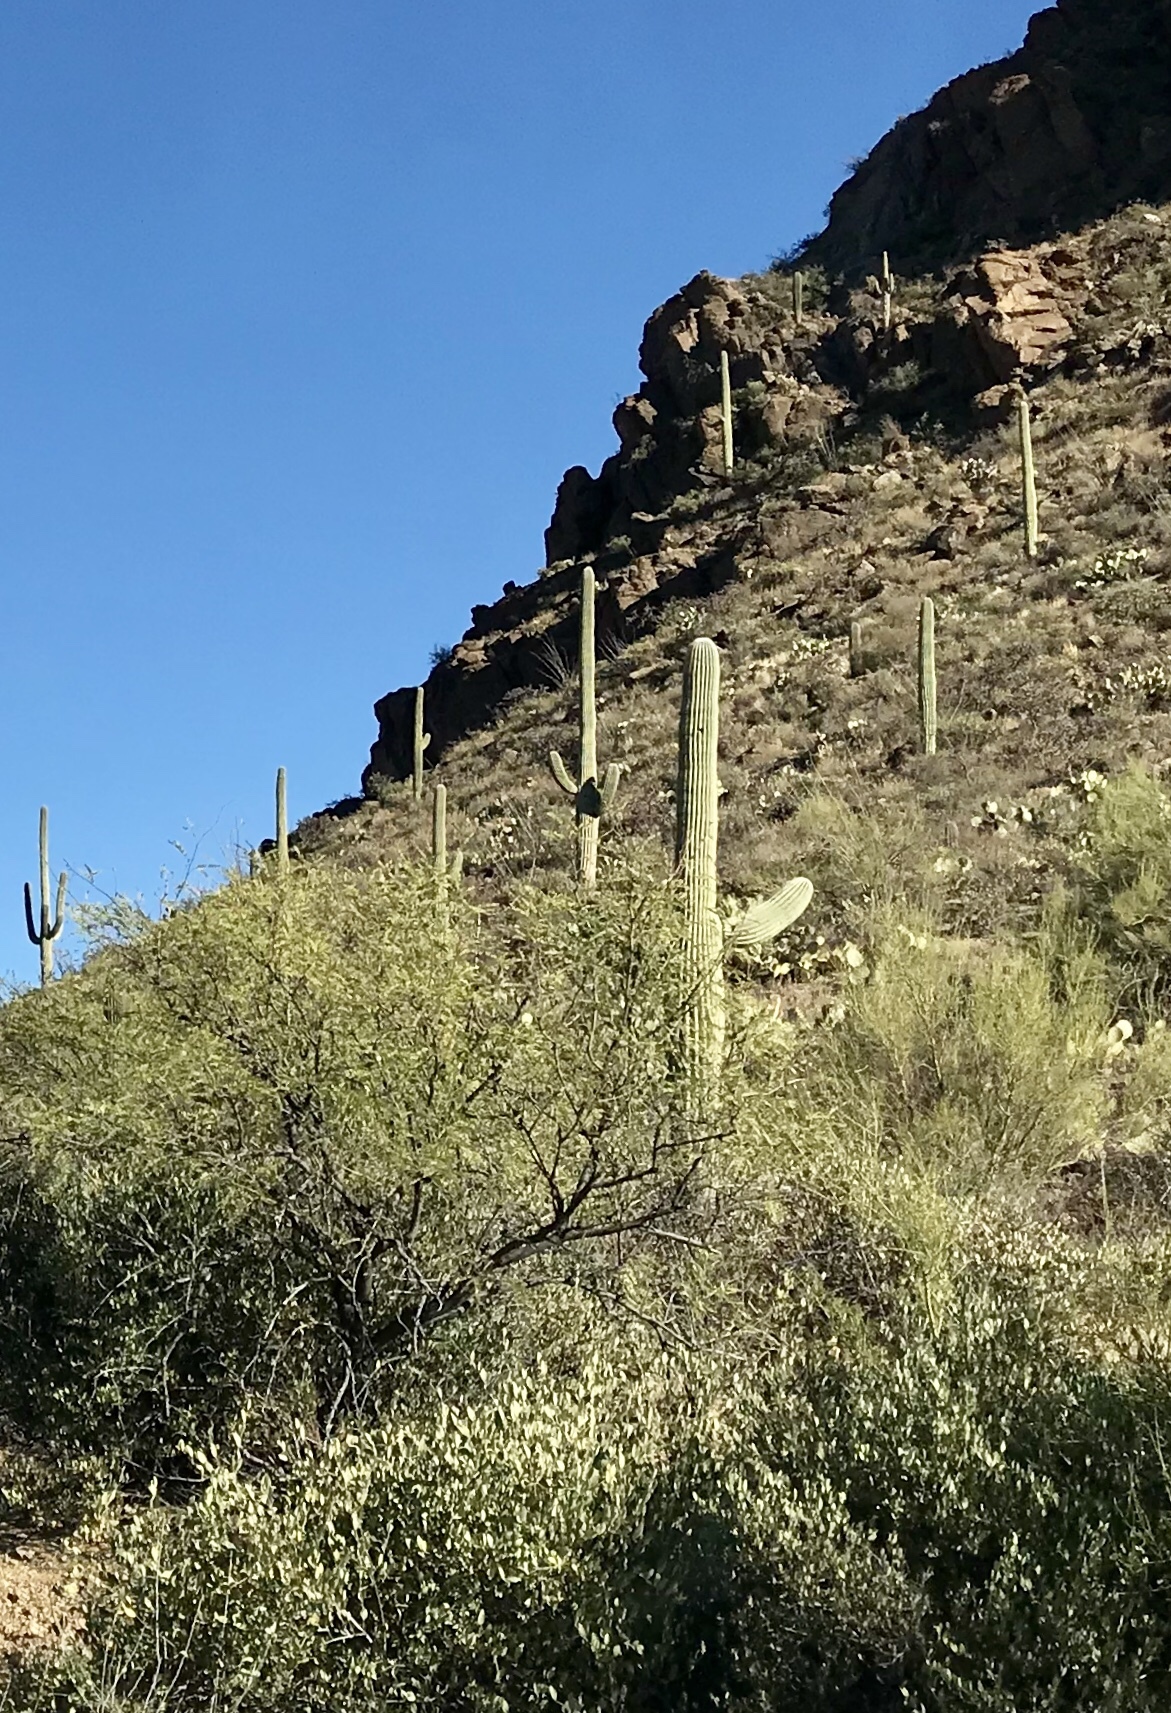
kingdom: Plantae
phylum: Tracheophyta
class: Magnoliopsida
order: Caryophyllales
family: Cactaceae
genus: Carnegiea
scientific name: Carnegiea gigantea
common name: Saguaro
